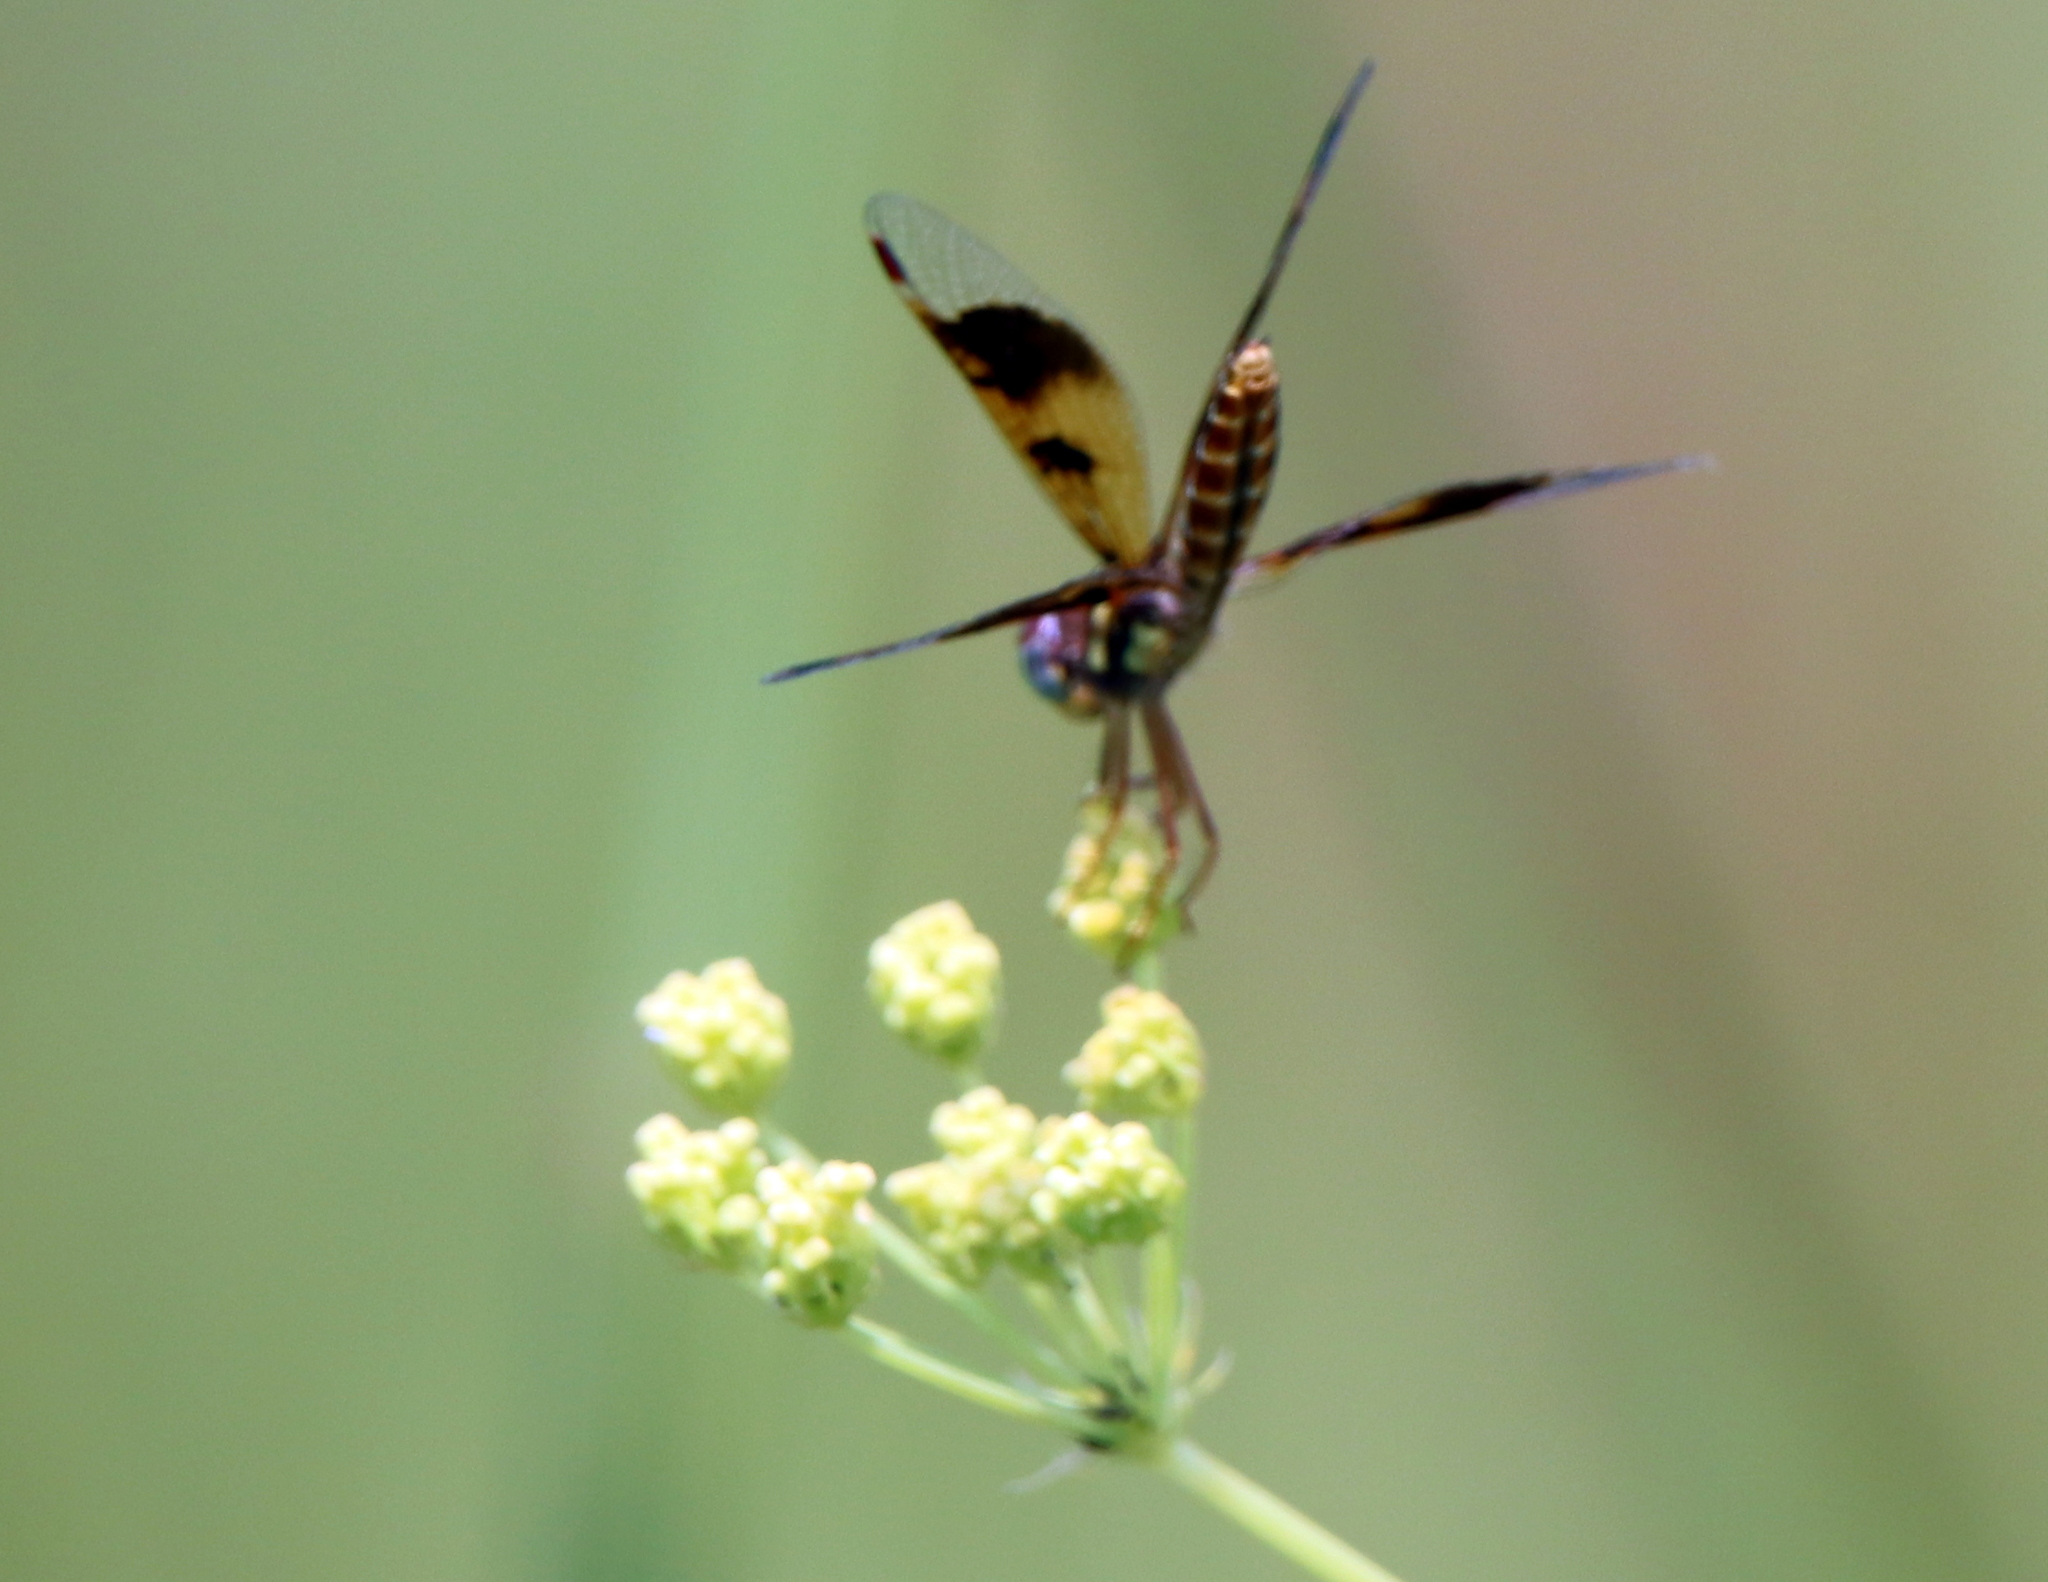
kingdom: Animalia
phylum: Arthropoda
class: Insecta
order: Odonata
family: Libellulidae
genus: Perithemis
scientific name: Perithemis tenera
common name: Eastern amberwing
